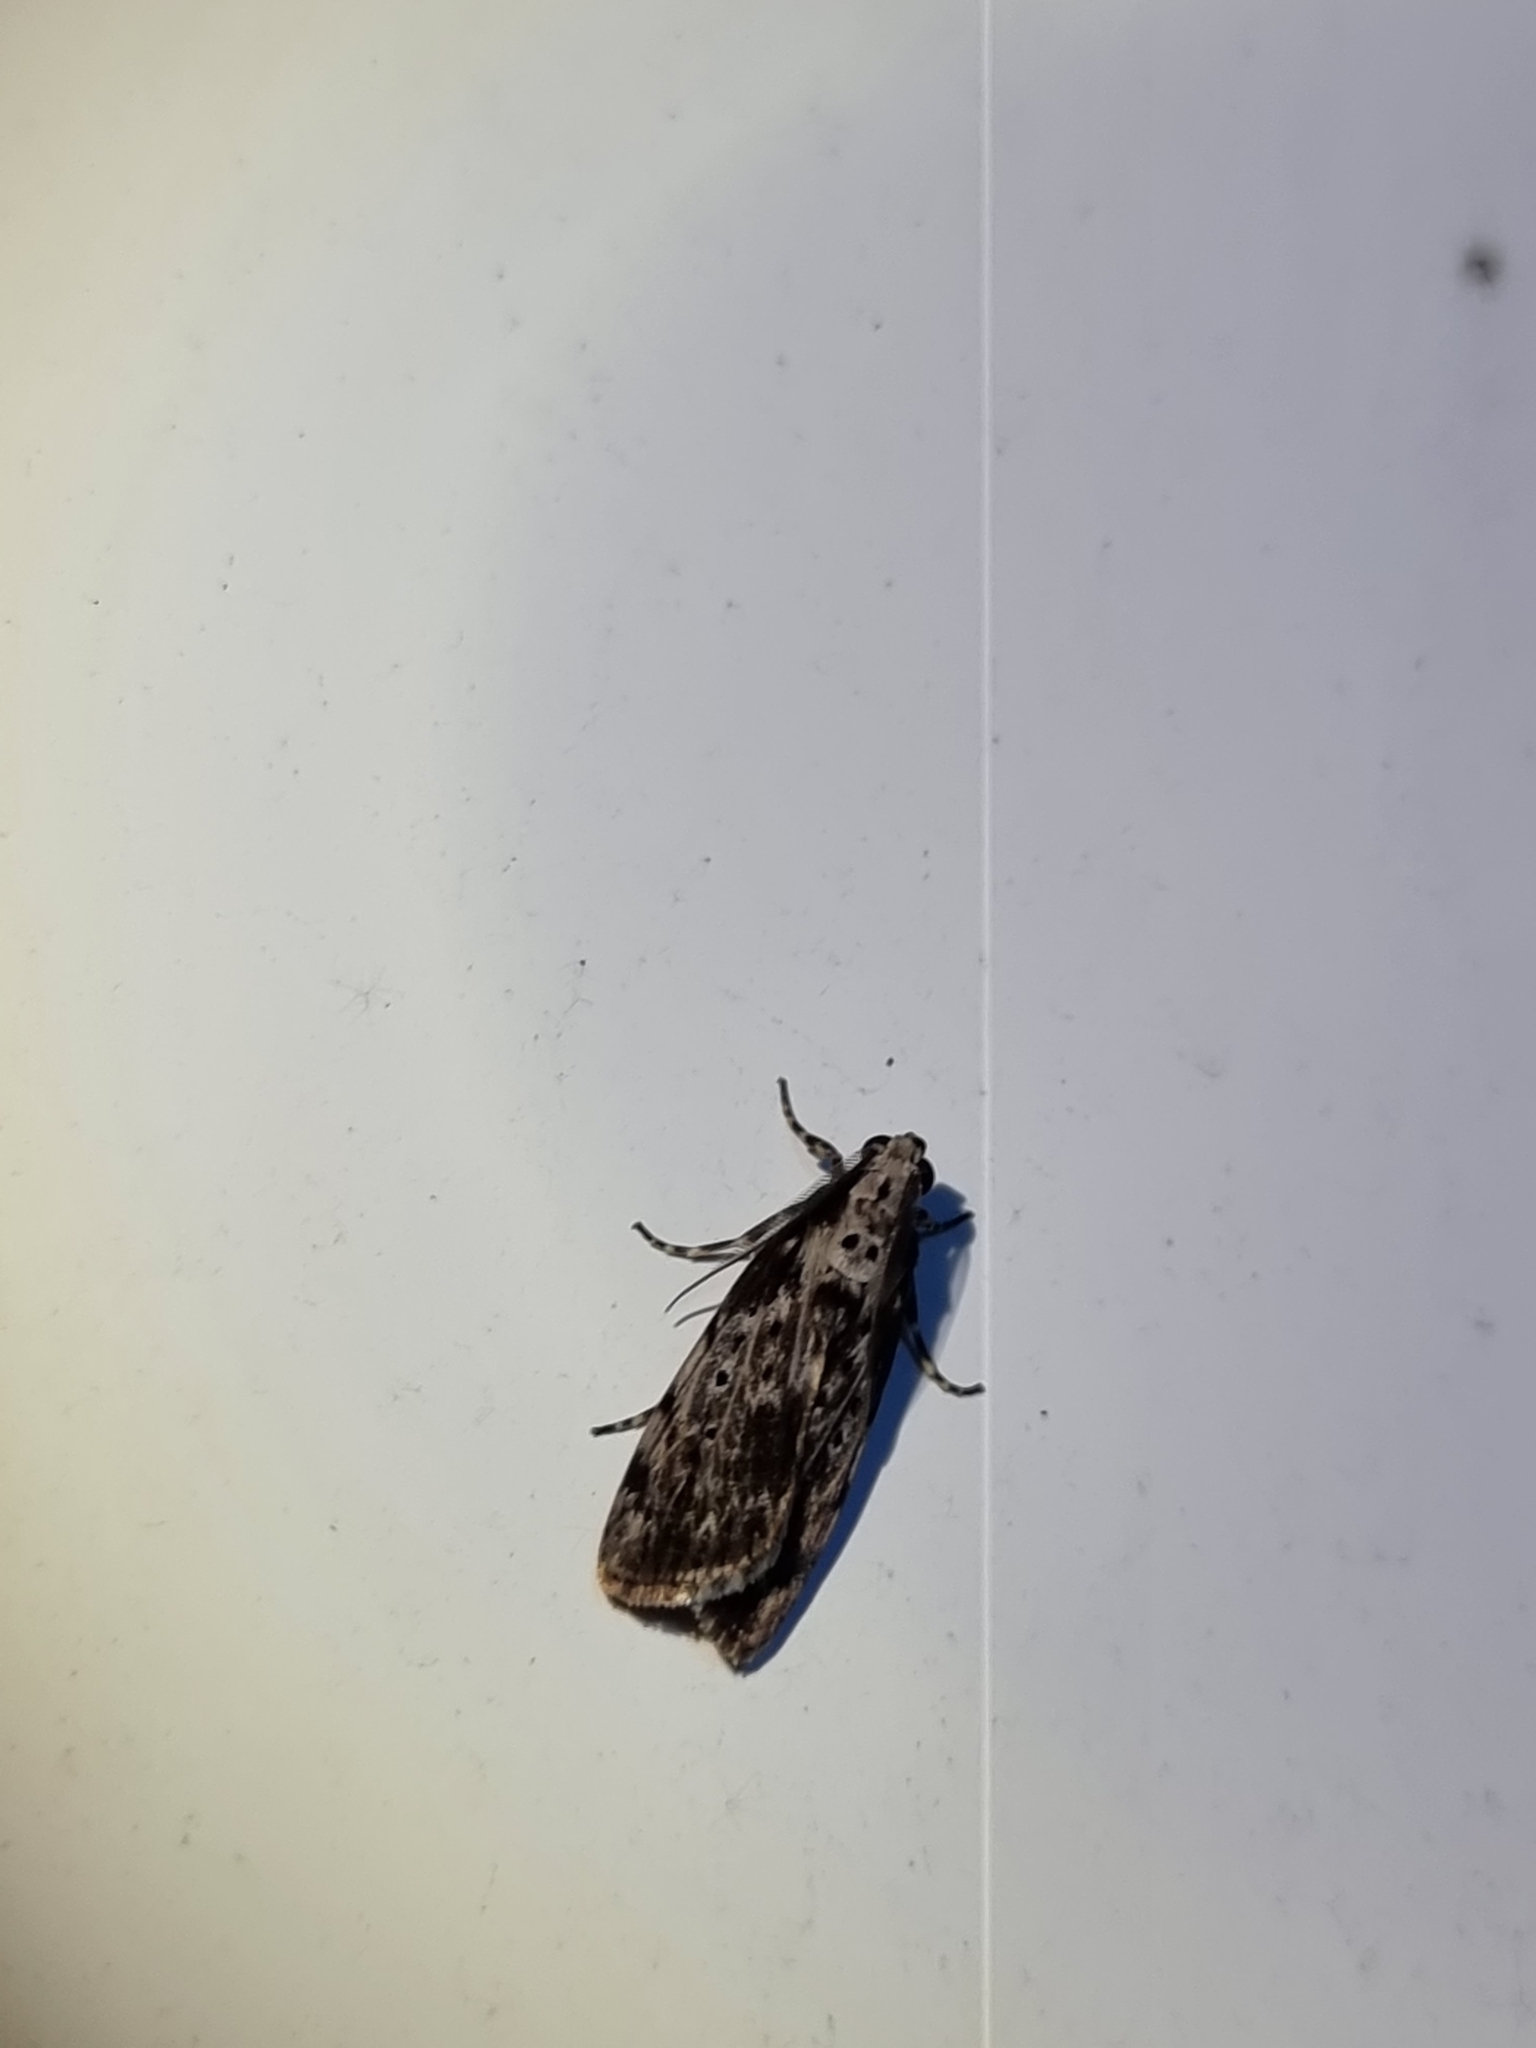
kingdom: Animalia
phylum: Arthropoda
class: Insecta
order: Lepidoptera
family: Erebidae
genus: Digama
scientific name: Digama Sommeria marmorea
